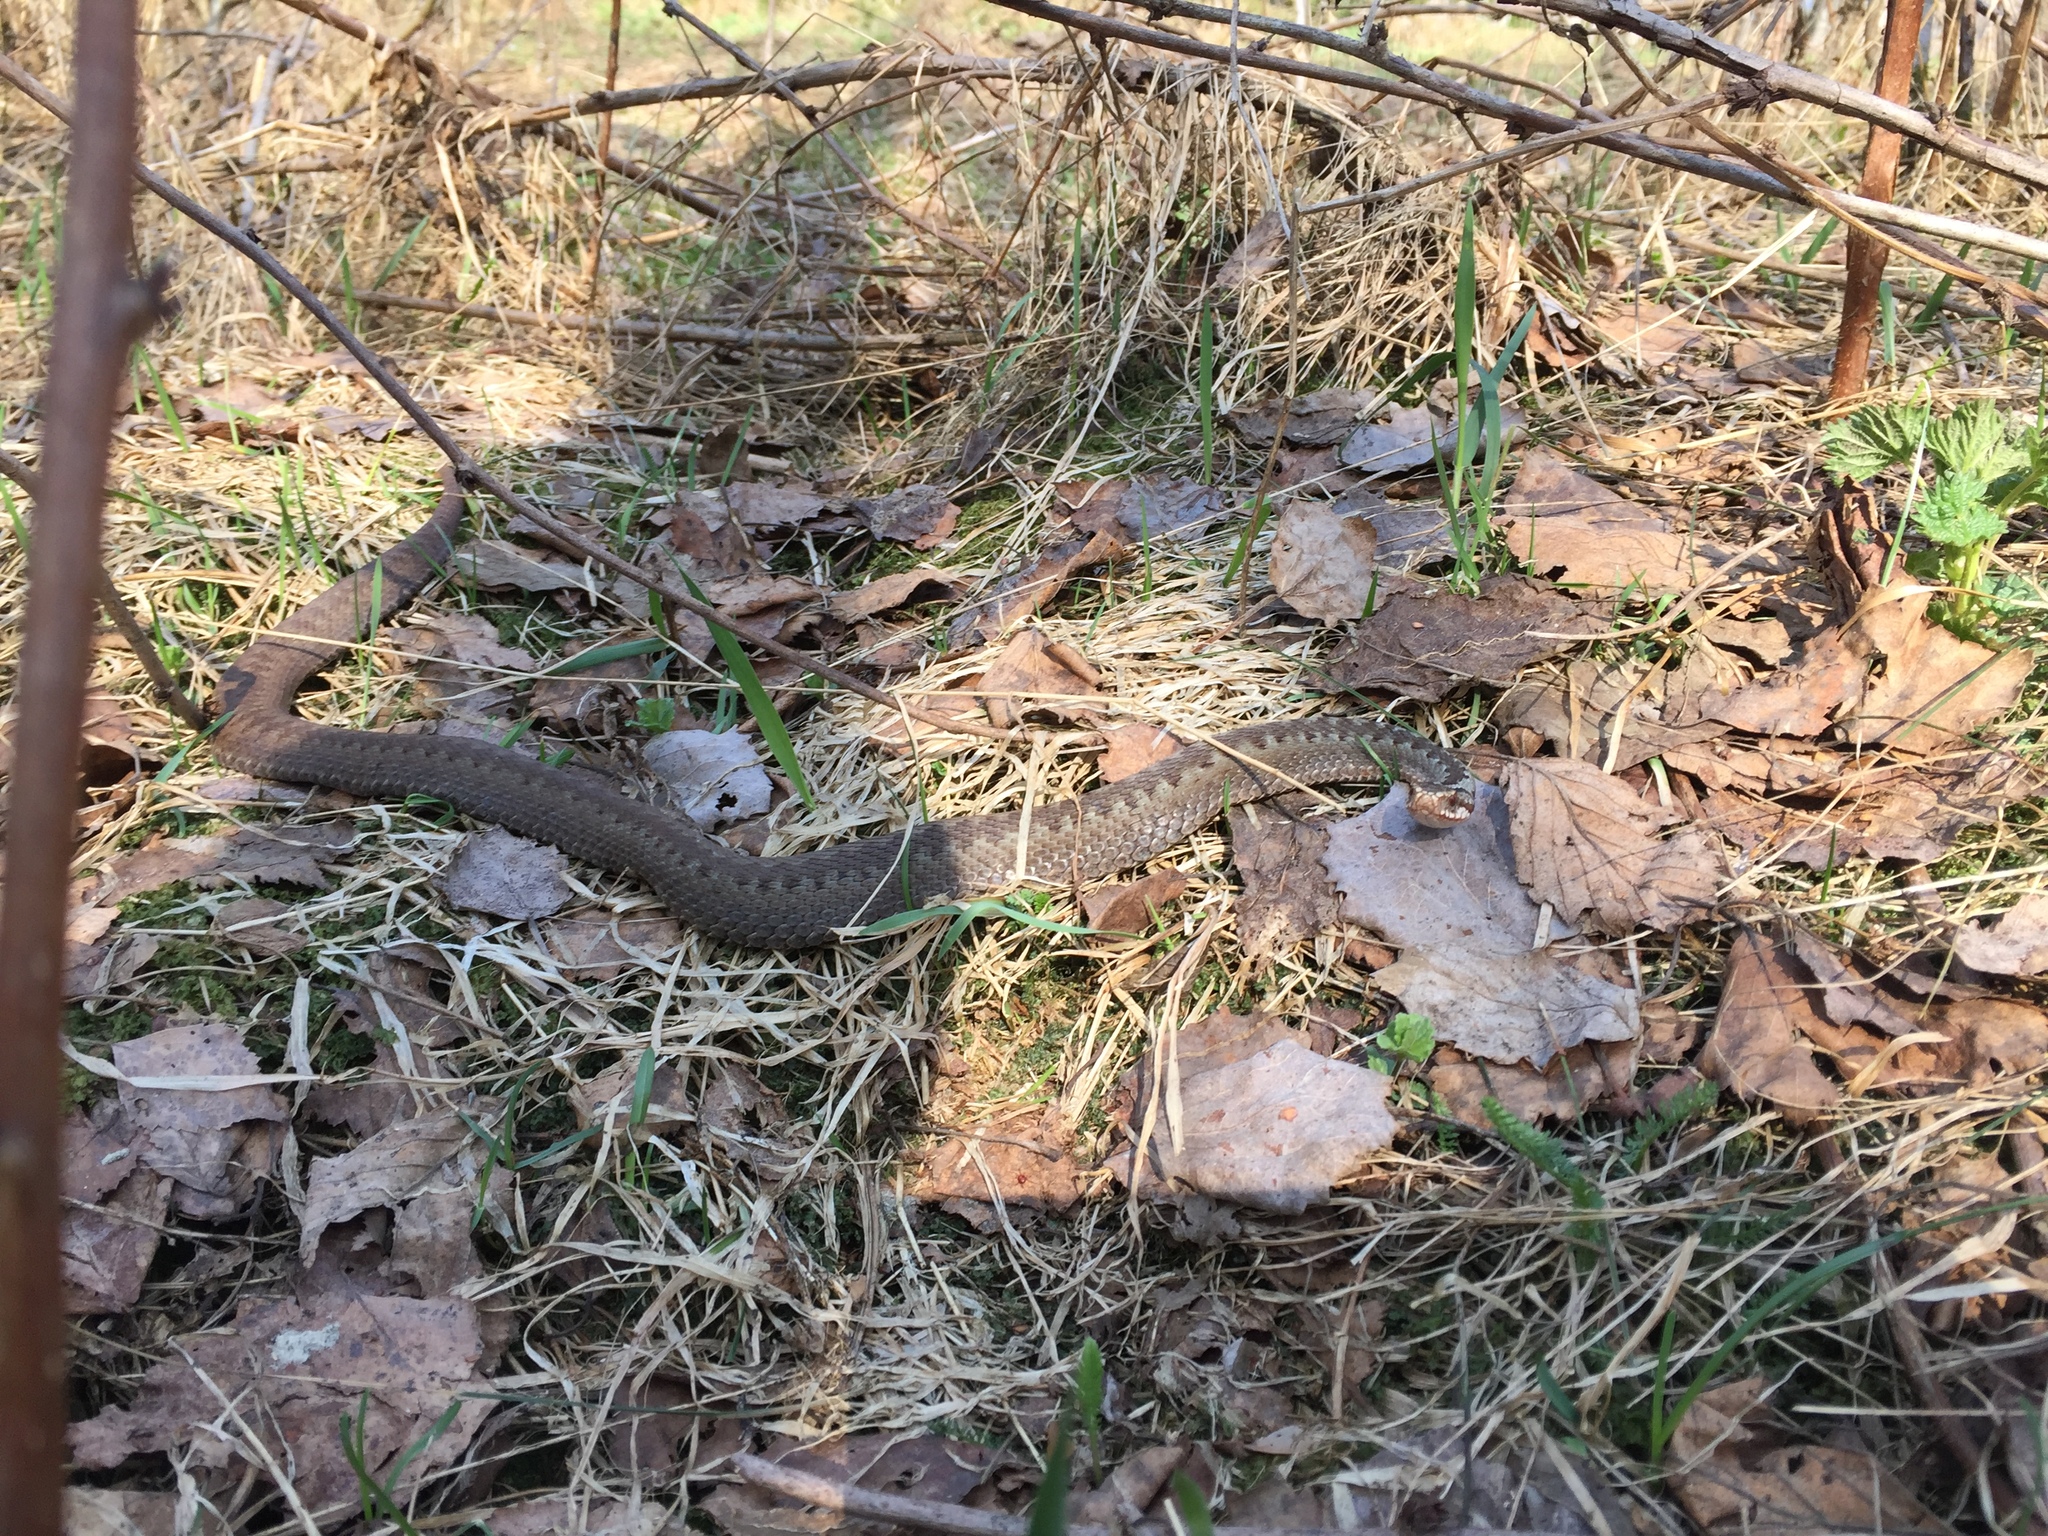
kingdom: Animalia
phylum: Chordata
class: Squamata
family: Viperidae
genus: Vipera
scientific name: Vipera berus
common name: Adder
